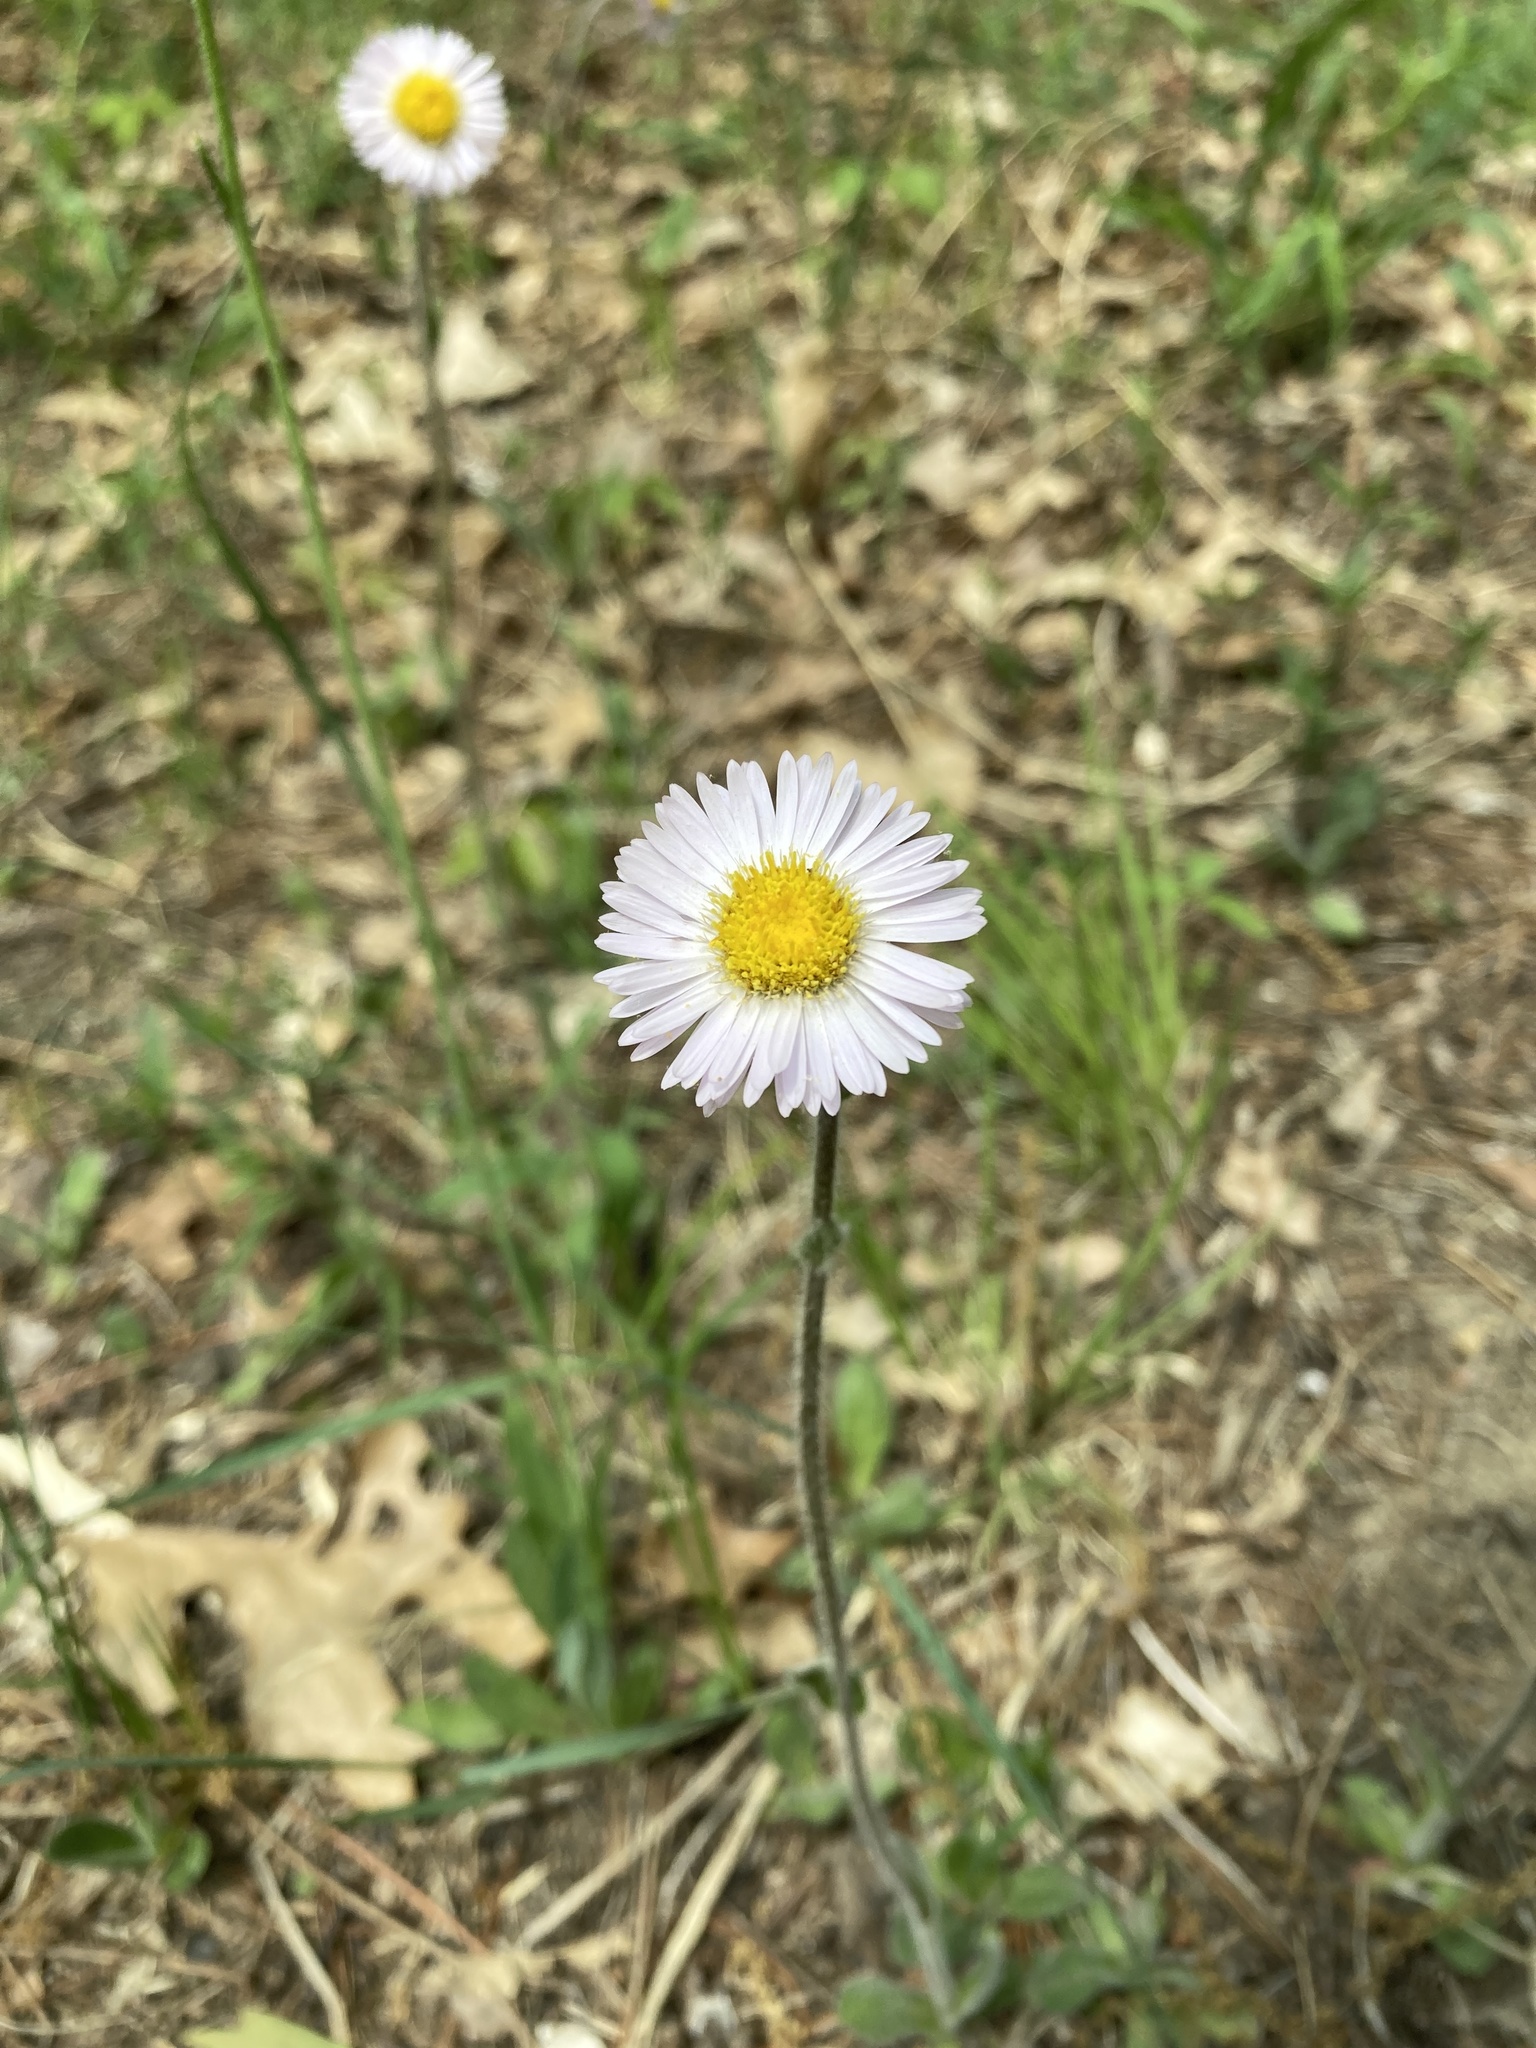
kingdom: Plantae
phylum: Tracheophyta
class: Magnoliopsida
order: Asterales
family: Asteraceae
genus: Erigeron
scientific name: Erigeron pulchellus
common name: Hairy fleabane
